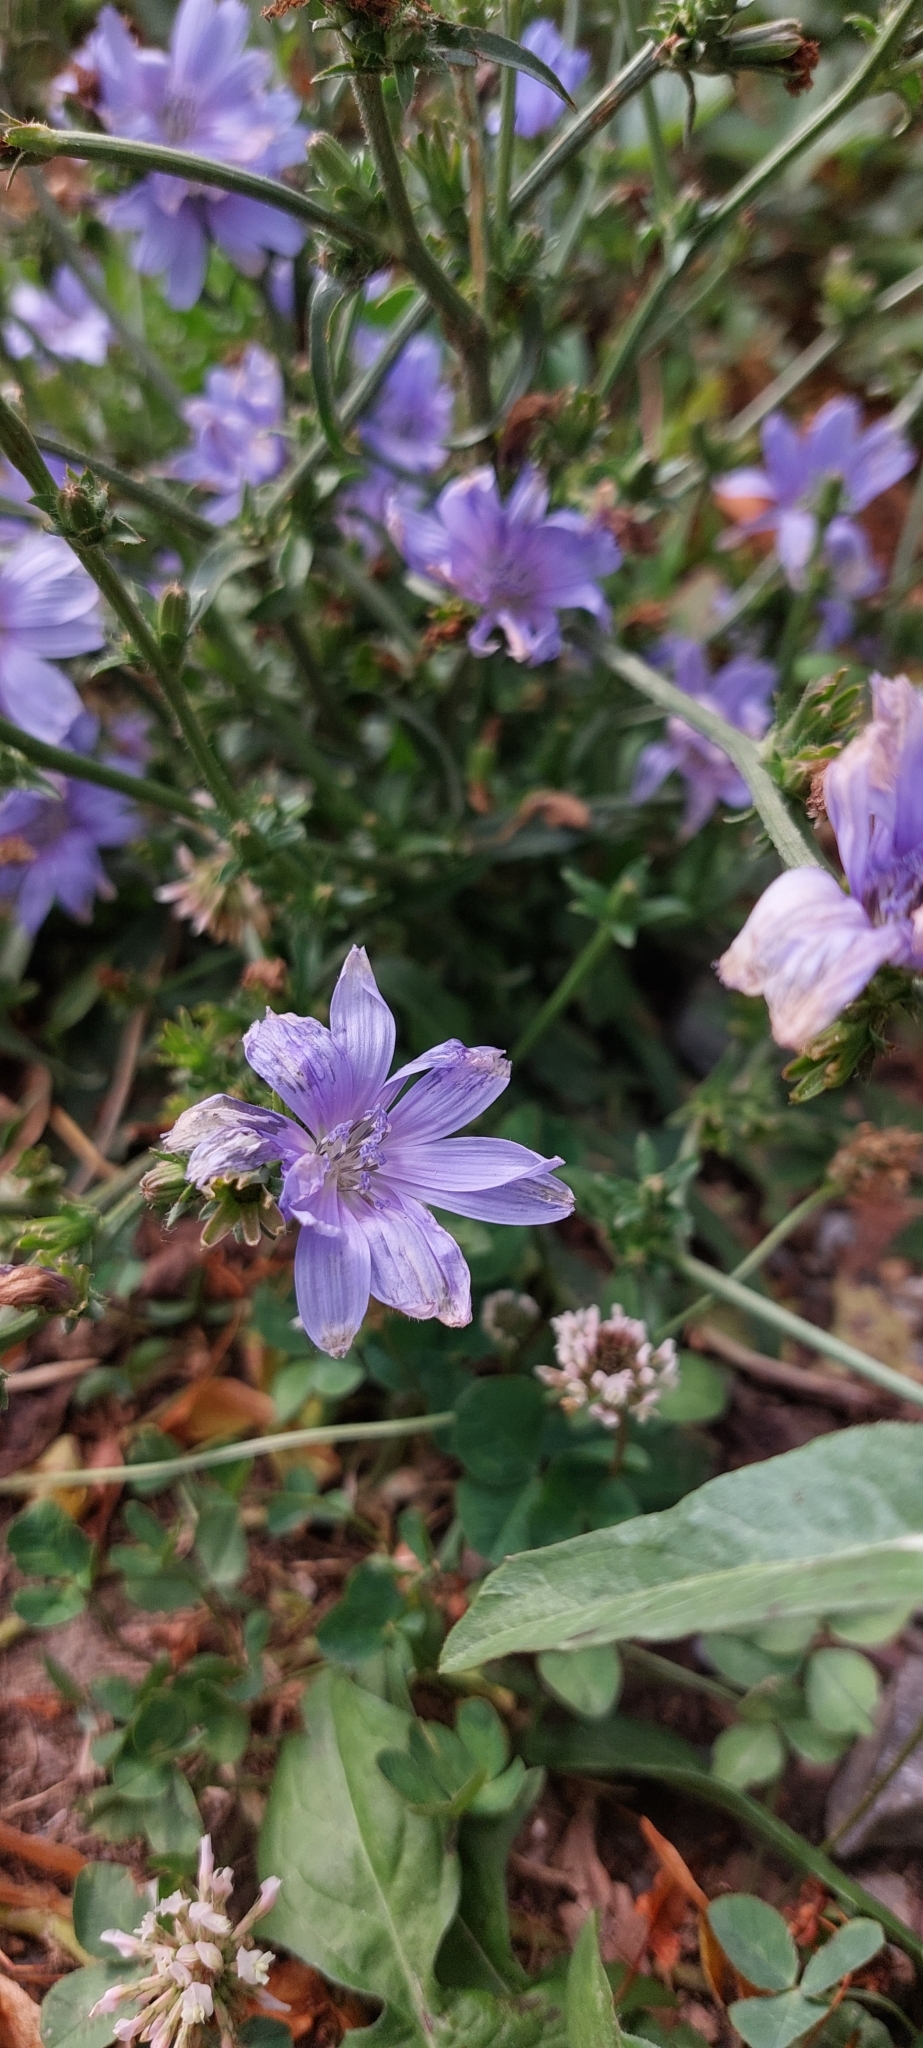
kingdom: Plantae
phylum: Tracheophyta
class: Magnoliopsida
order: Asterales
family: Asteraceae
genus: Cichorium
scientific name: Cichorium intybus
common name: Chicory
